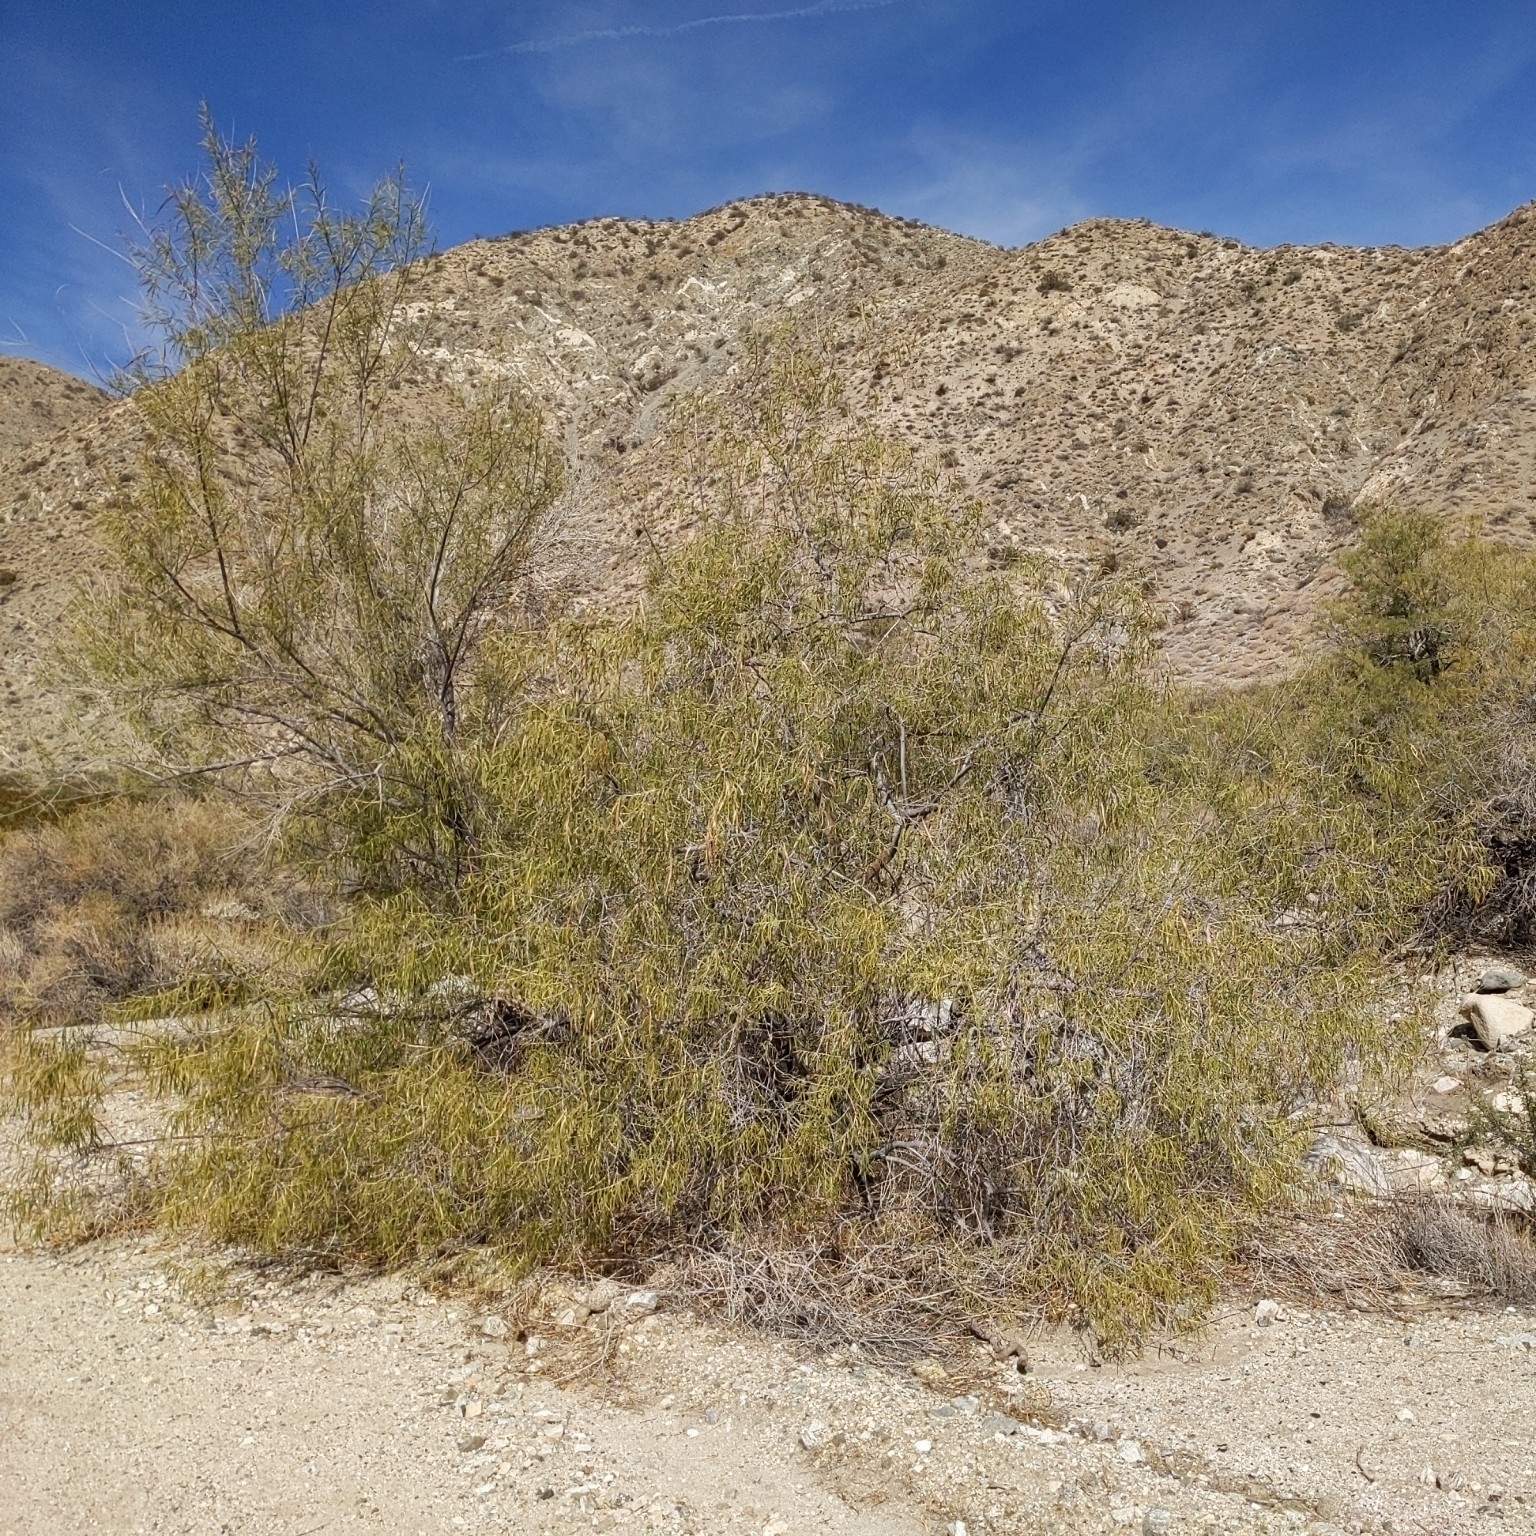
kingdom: Plantae
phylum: Tracheophyta
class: Magnoliopsida
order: Lamiales
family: Bignoniaceae
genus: Chilopsis
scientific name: Chilopsis linearis
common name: Desert-willow
